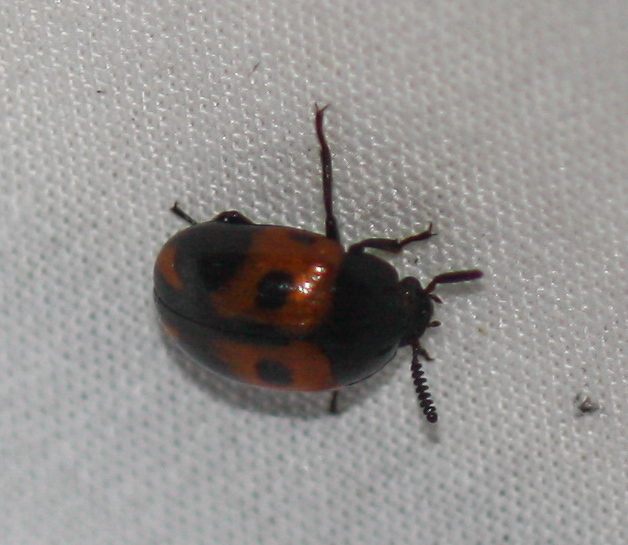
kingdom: Animalia
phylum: Arthropoda
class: Insecta
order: Coleoptera
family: Tenebrionidae
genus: Diaperis
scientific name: Diaperis maculata
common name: Darkling beetle
